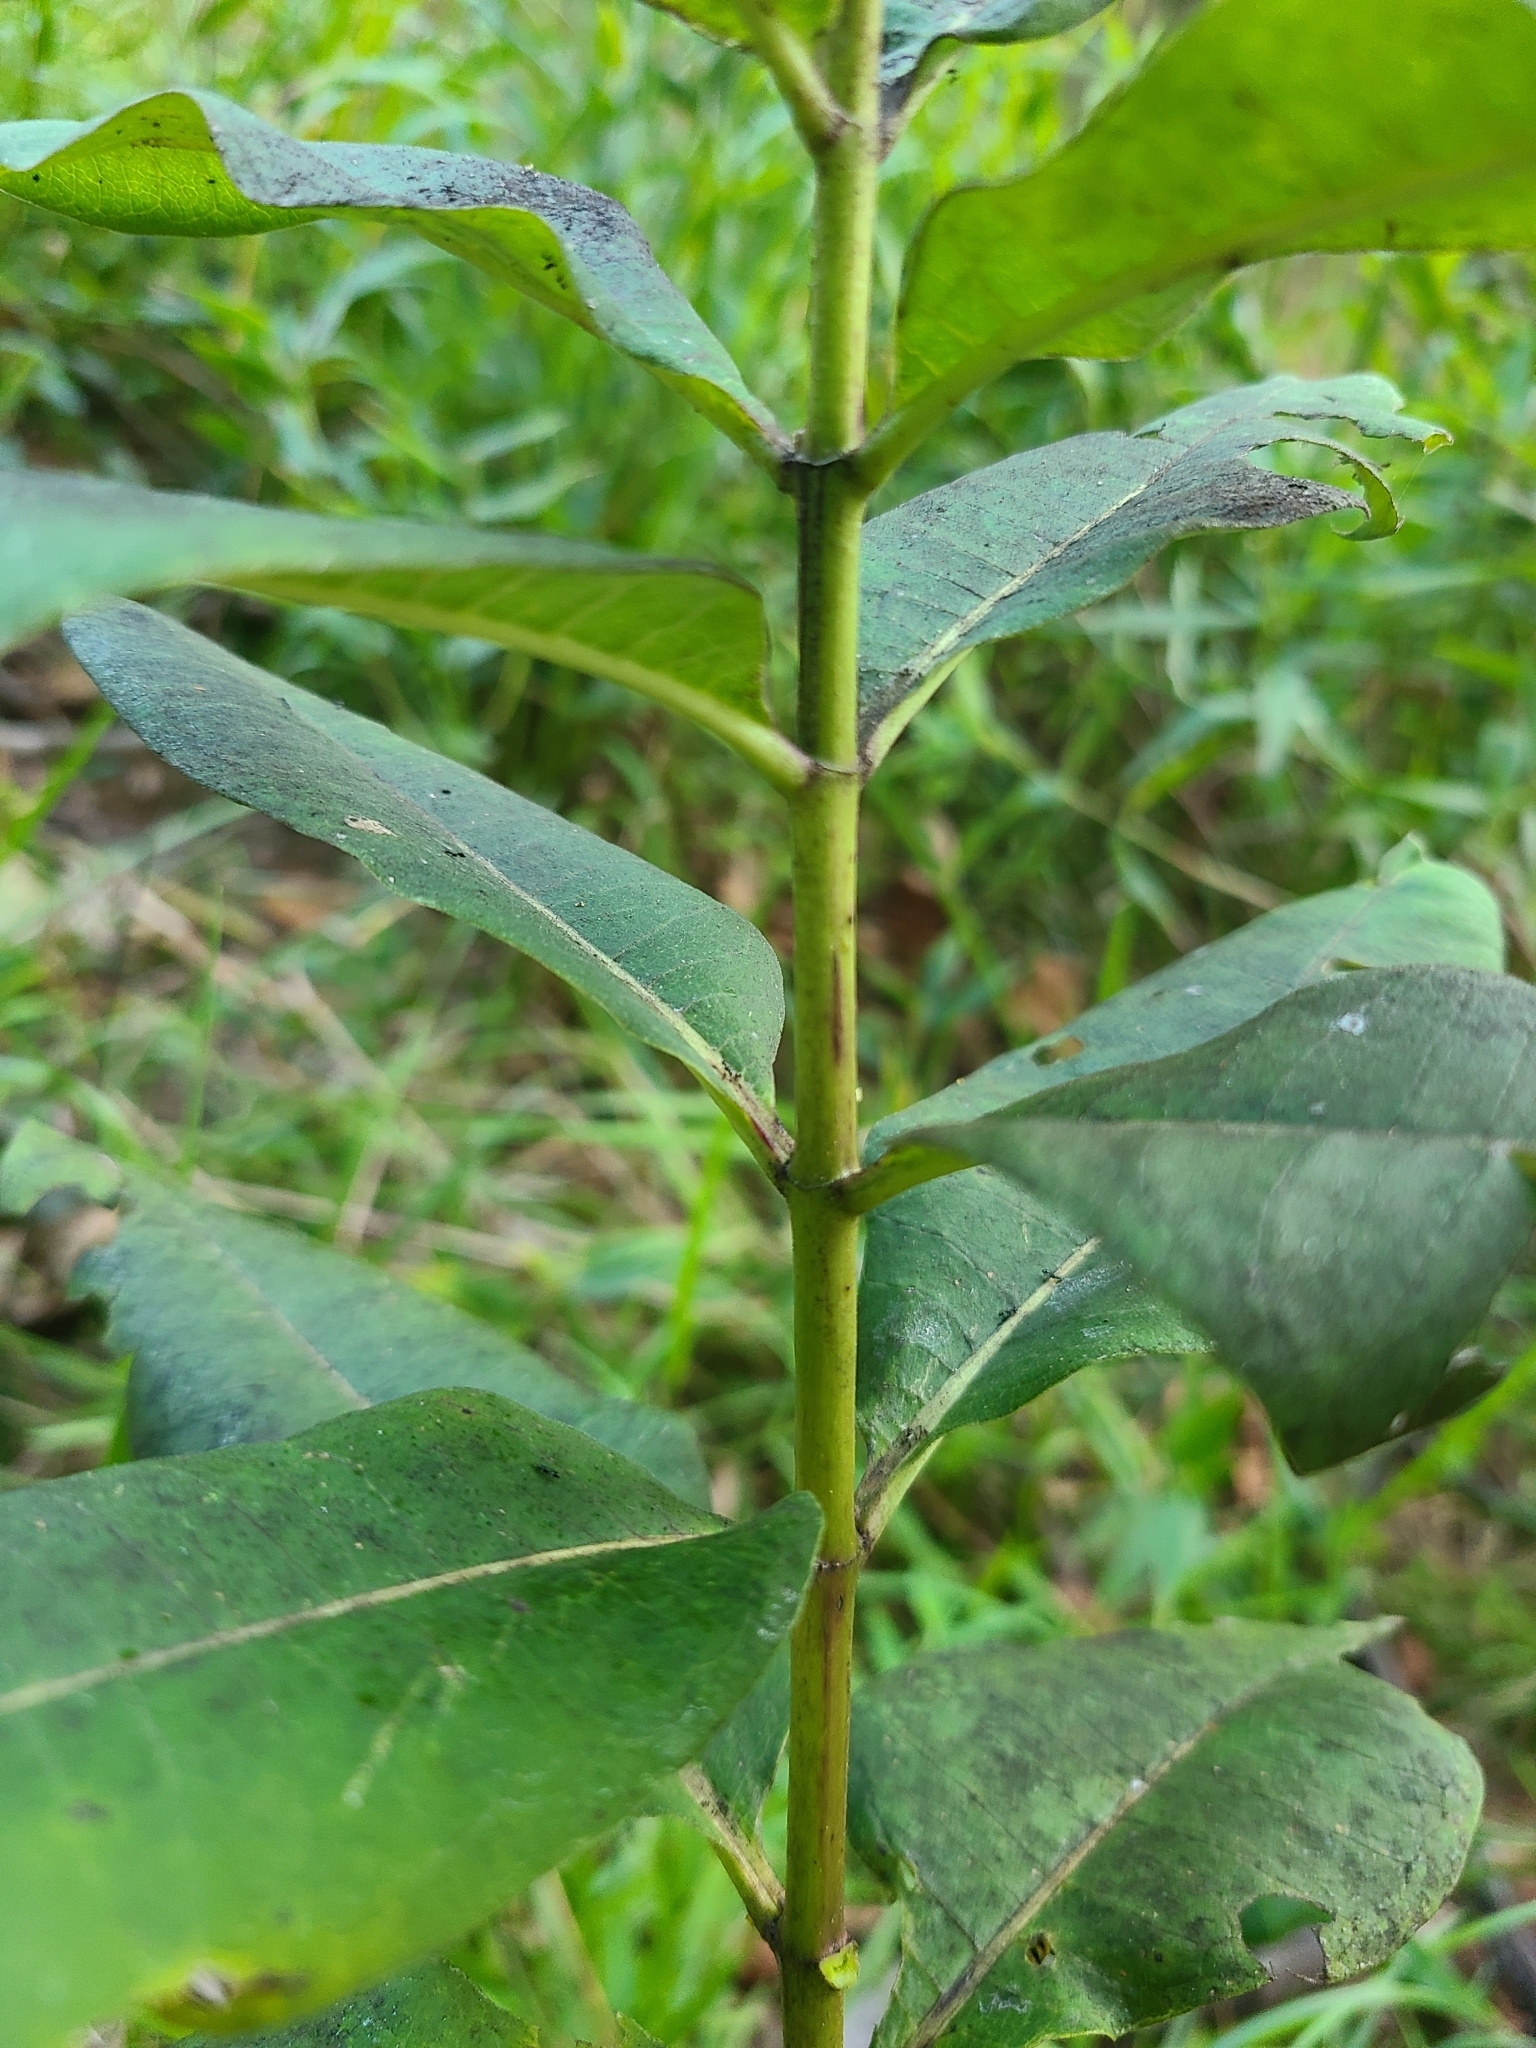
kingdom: Plantae
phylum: Tracheophyta
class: Magnoliopsida
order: Gentianales
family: Apocynaceae
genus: Asclepias
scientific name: Asclepias syriaca
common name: Common milkweed
